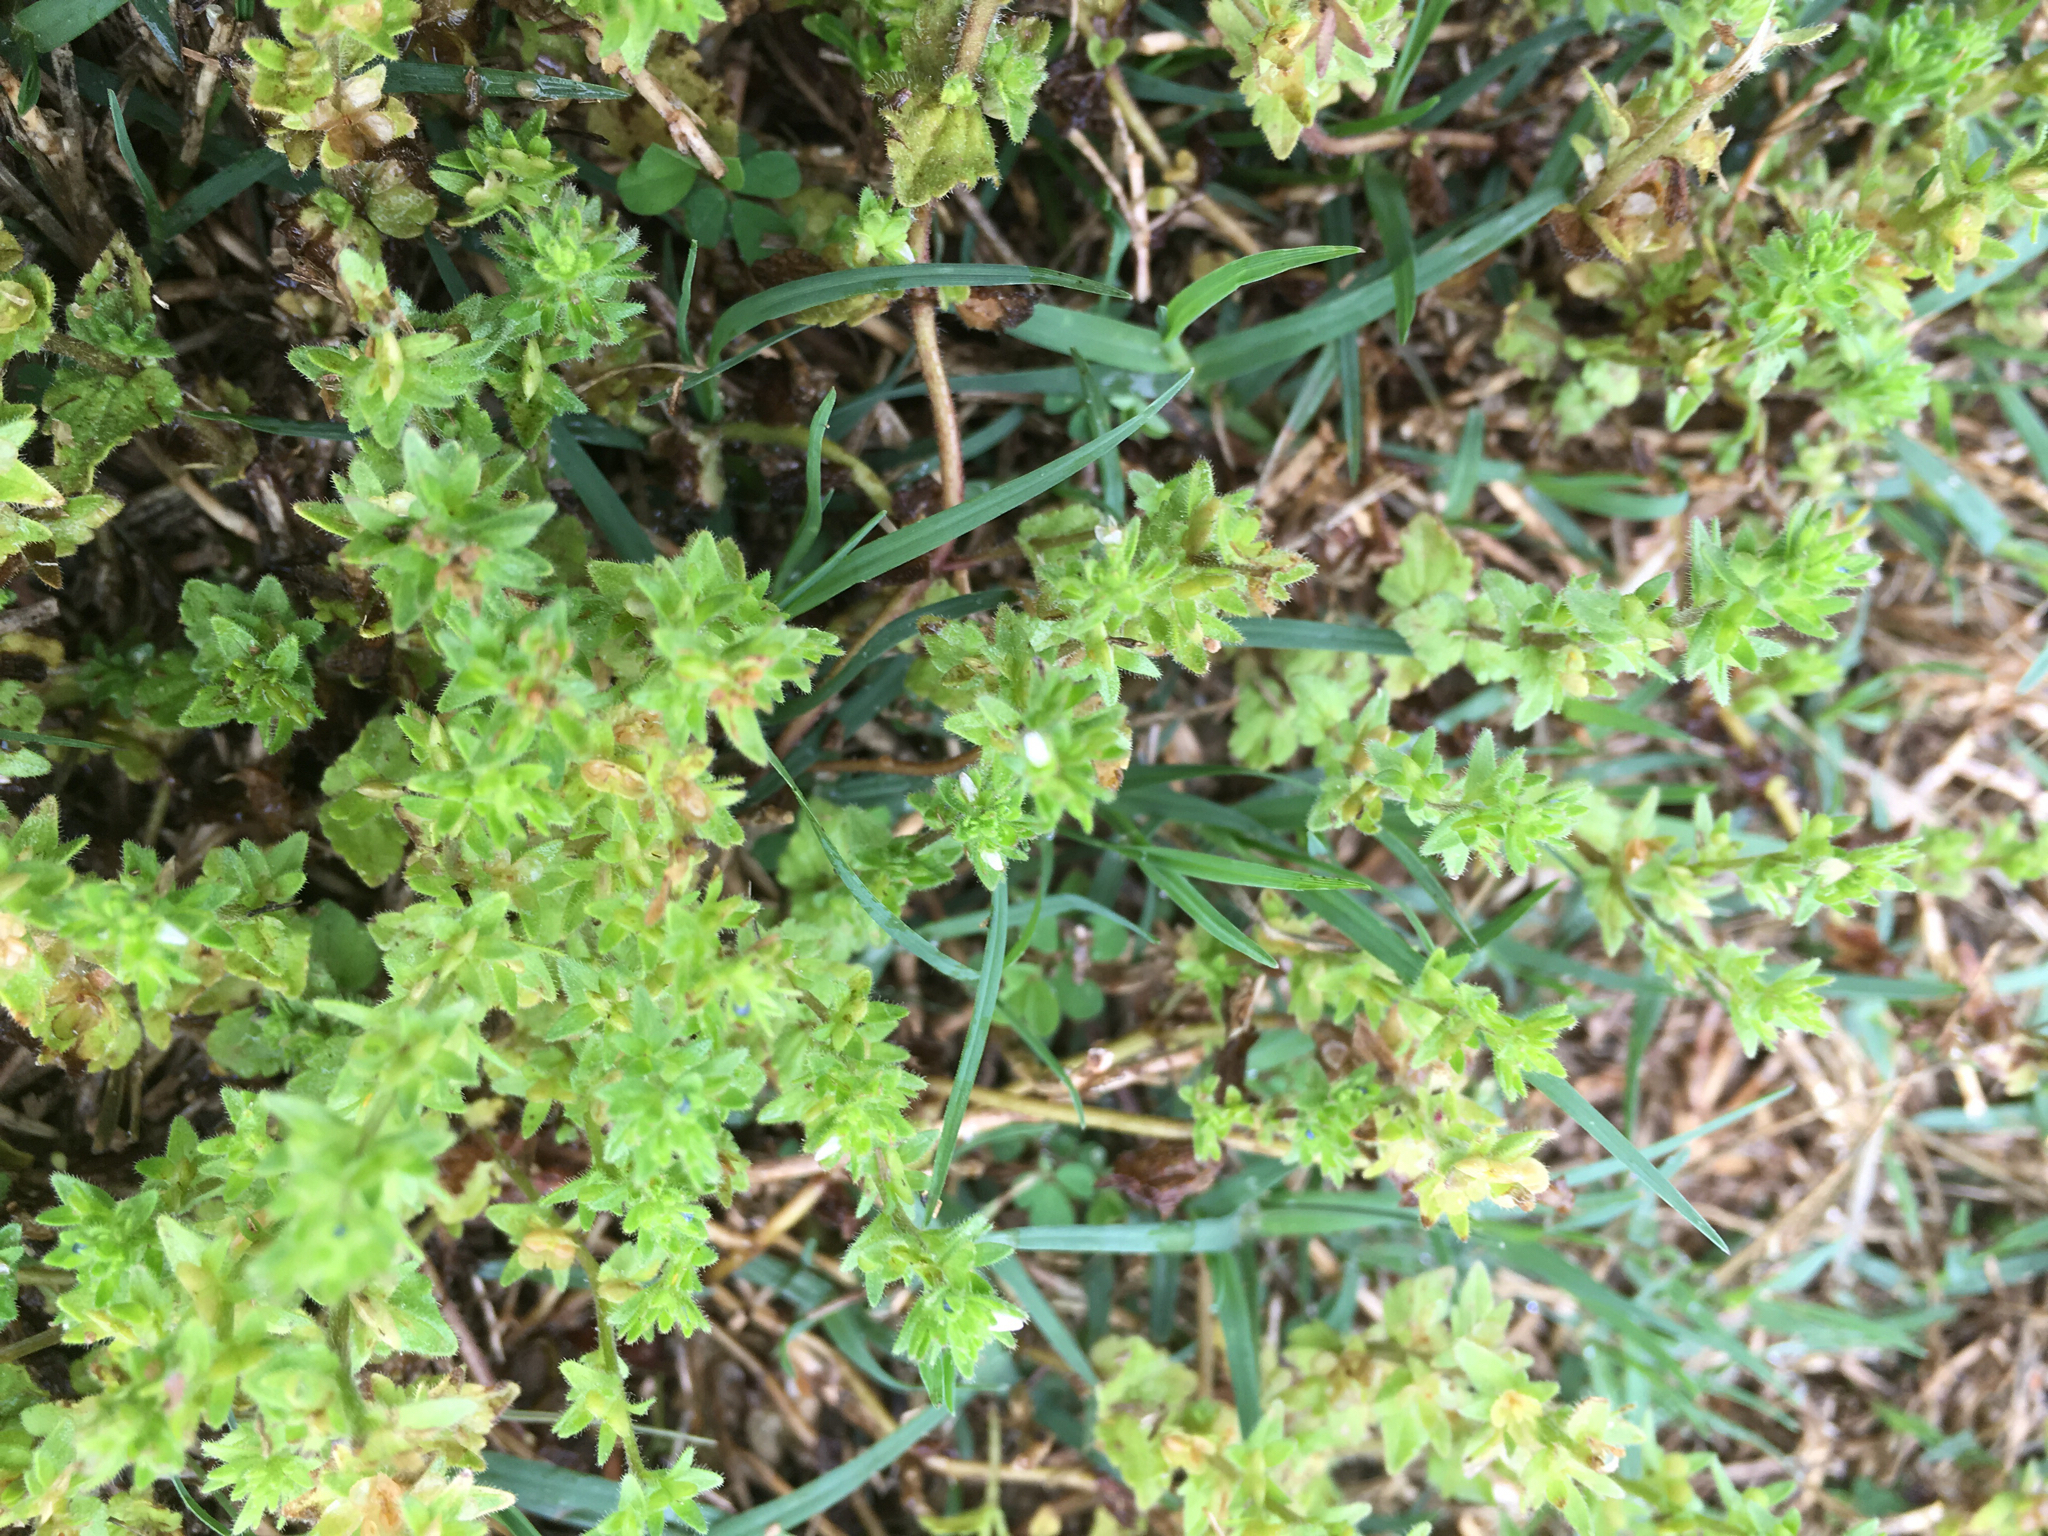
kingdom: Plantae
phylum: Tracheophyta
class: Magnoliopsida
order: Lamiales
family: Plantaginaceae
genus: Veronica
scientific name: Veronica arvensis
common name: Corn speedwell
